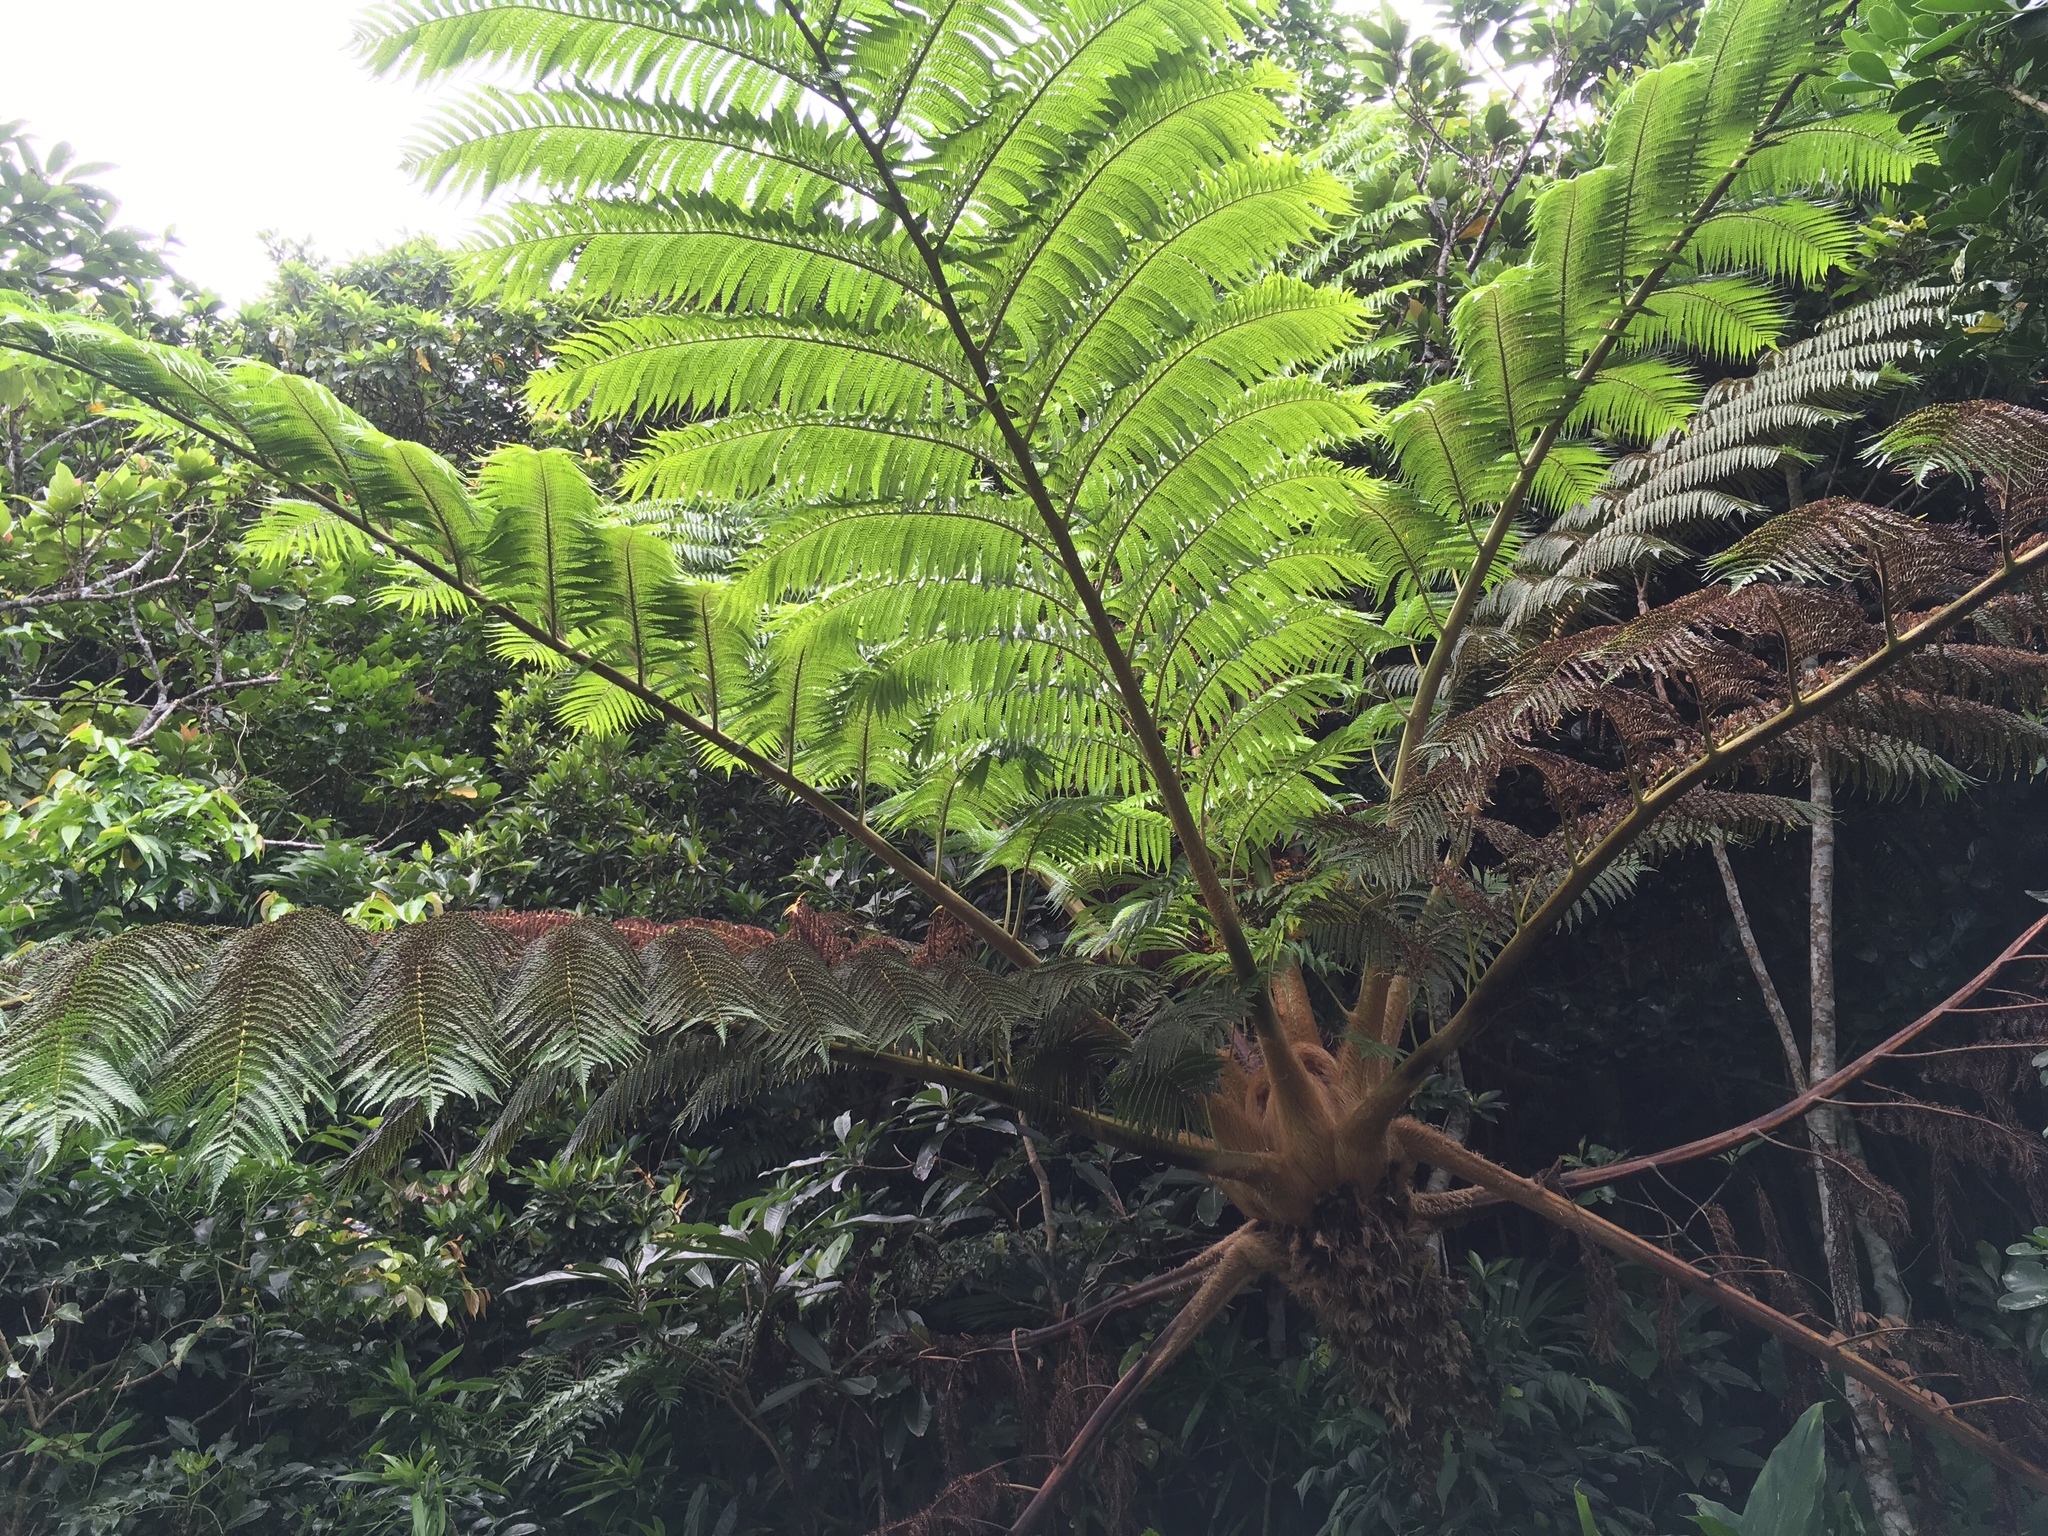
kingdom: Plantae
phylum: Tracheophyta
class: Polypodiopsida
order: Cyatheales
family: Cyatheaceae
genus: Alsophila
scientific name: Alsophila lepifera
